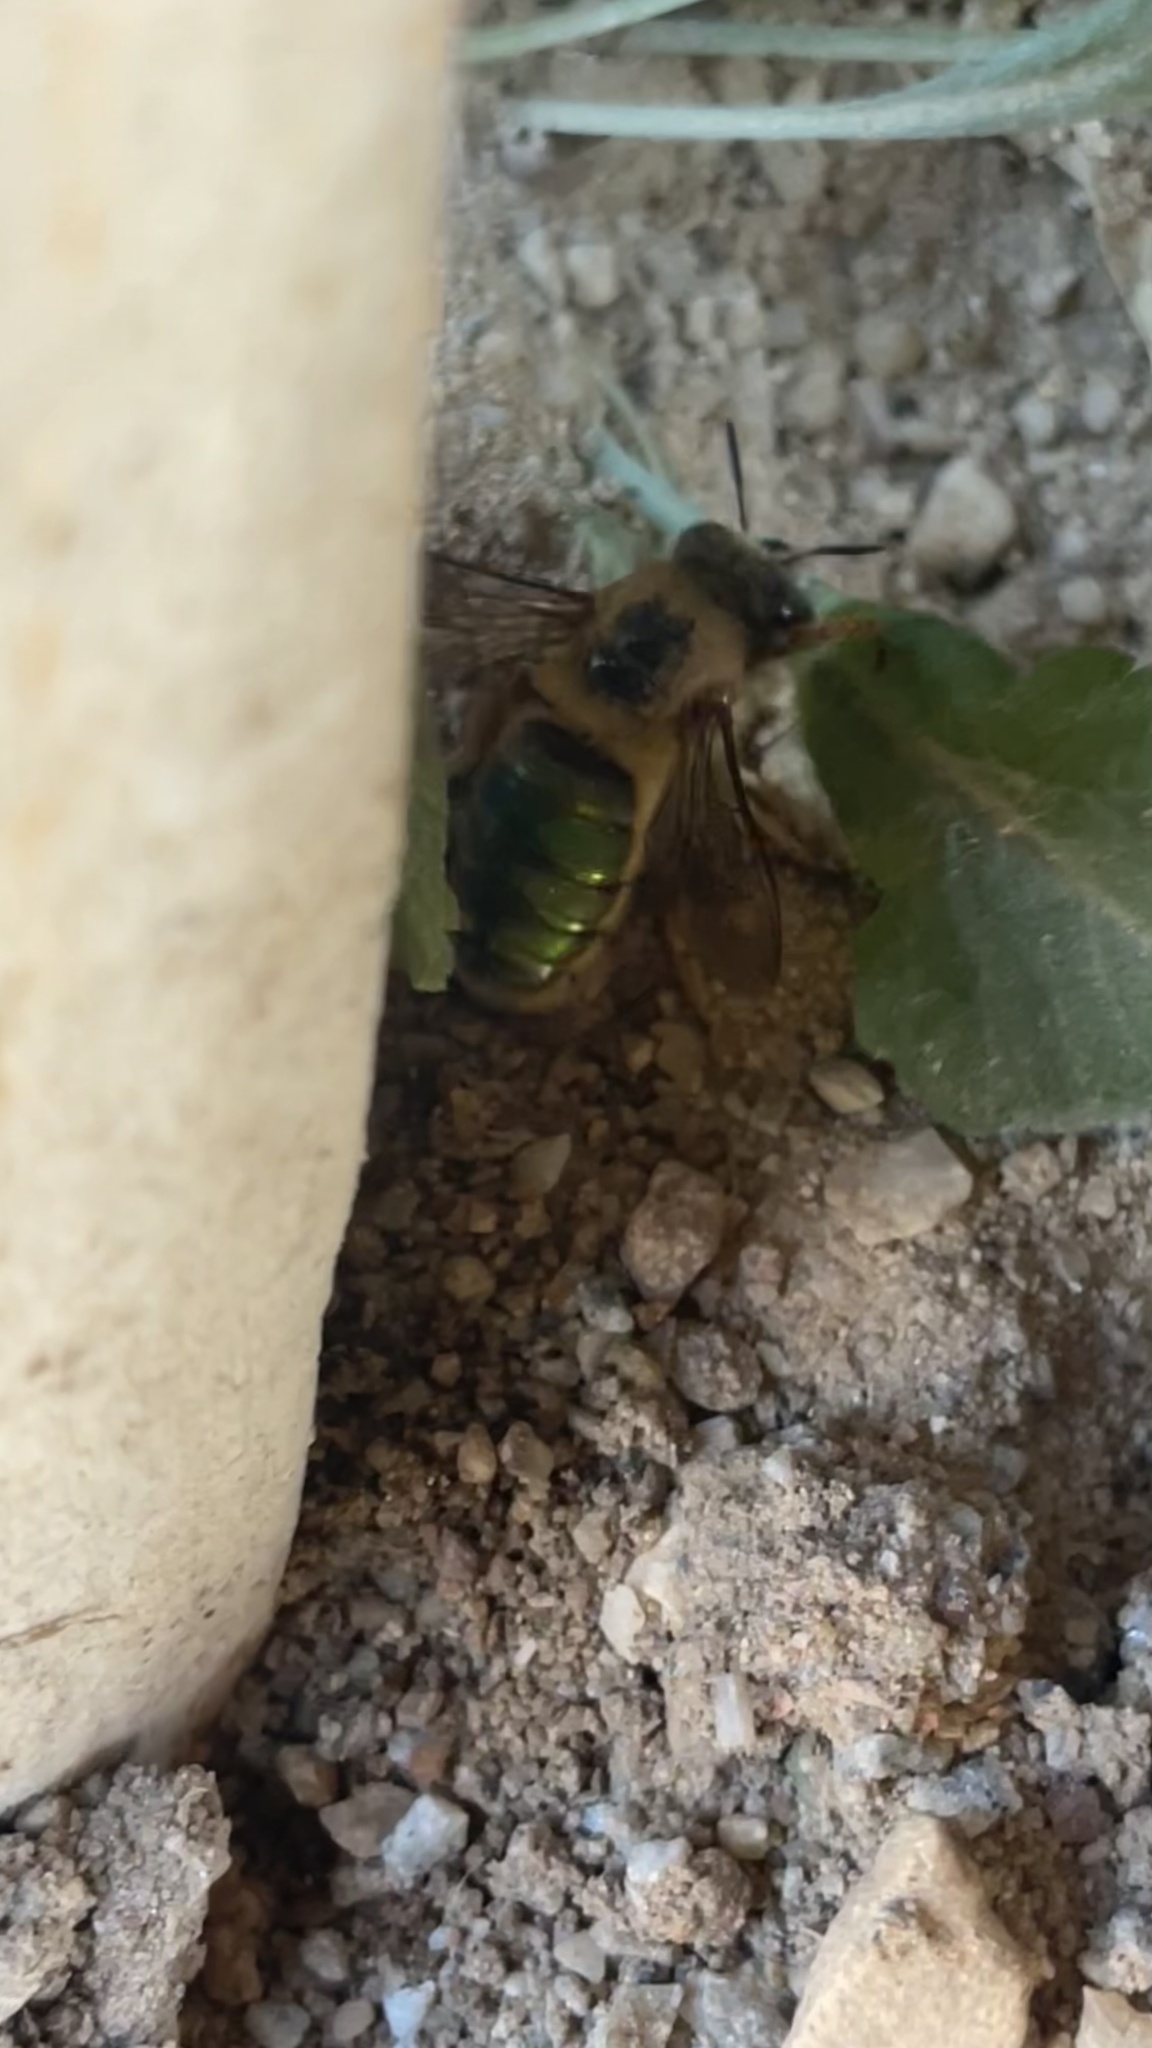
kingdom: Animalia
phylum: Arthropoda
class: Insecta
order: Hymenoptera
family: Andrenidae
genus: Oxaea
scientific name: Oxaea flavescens
